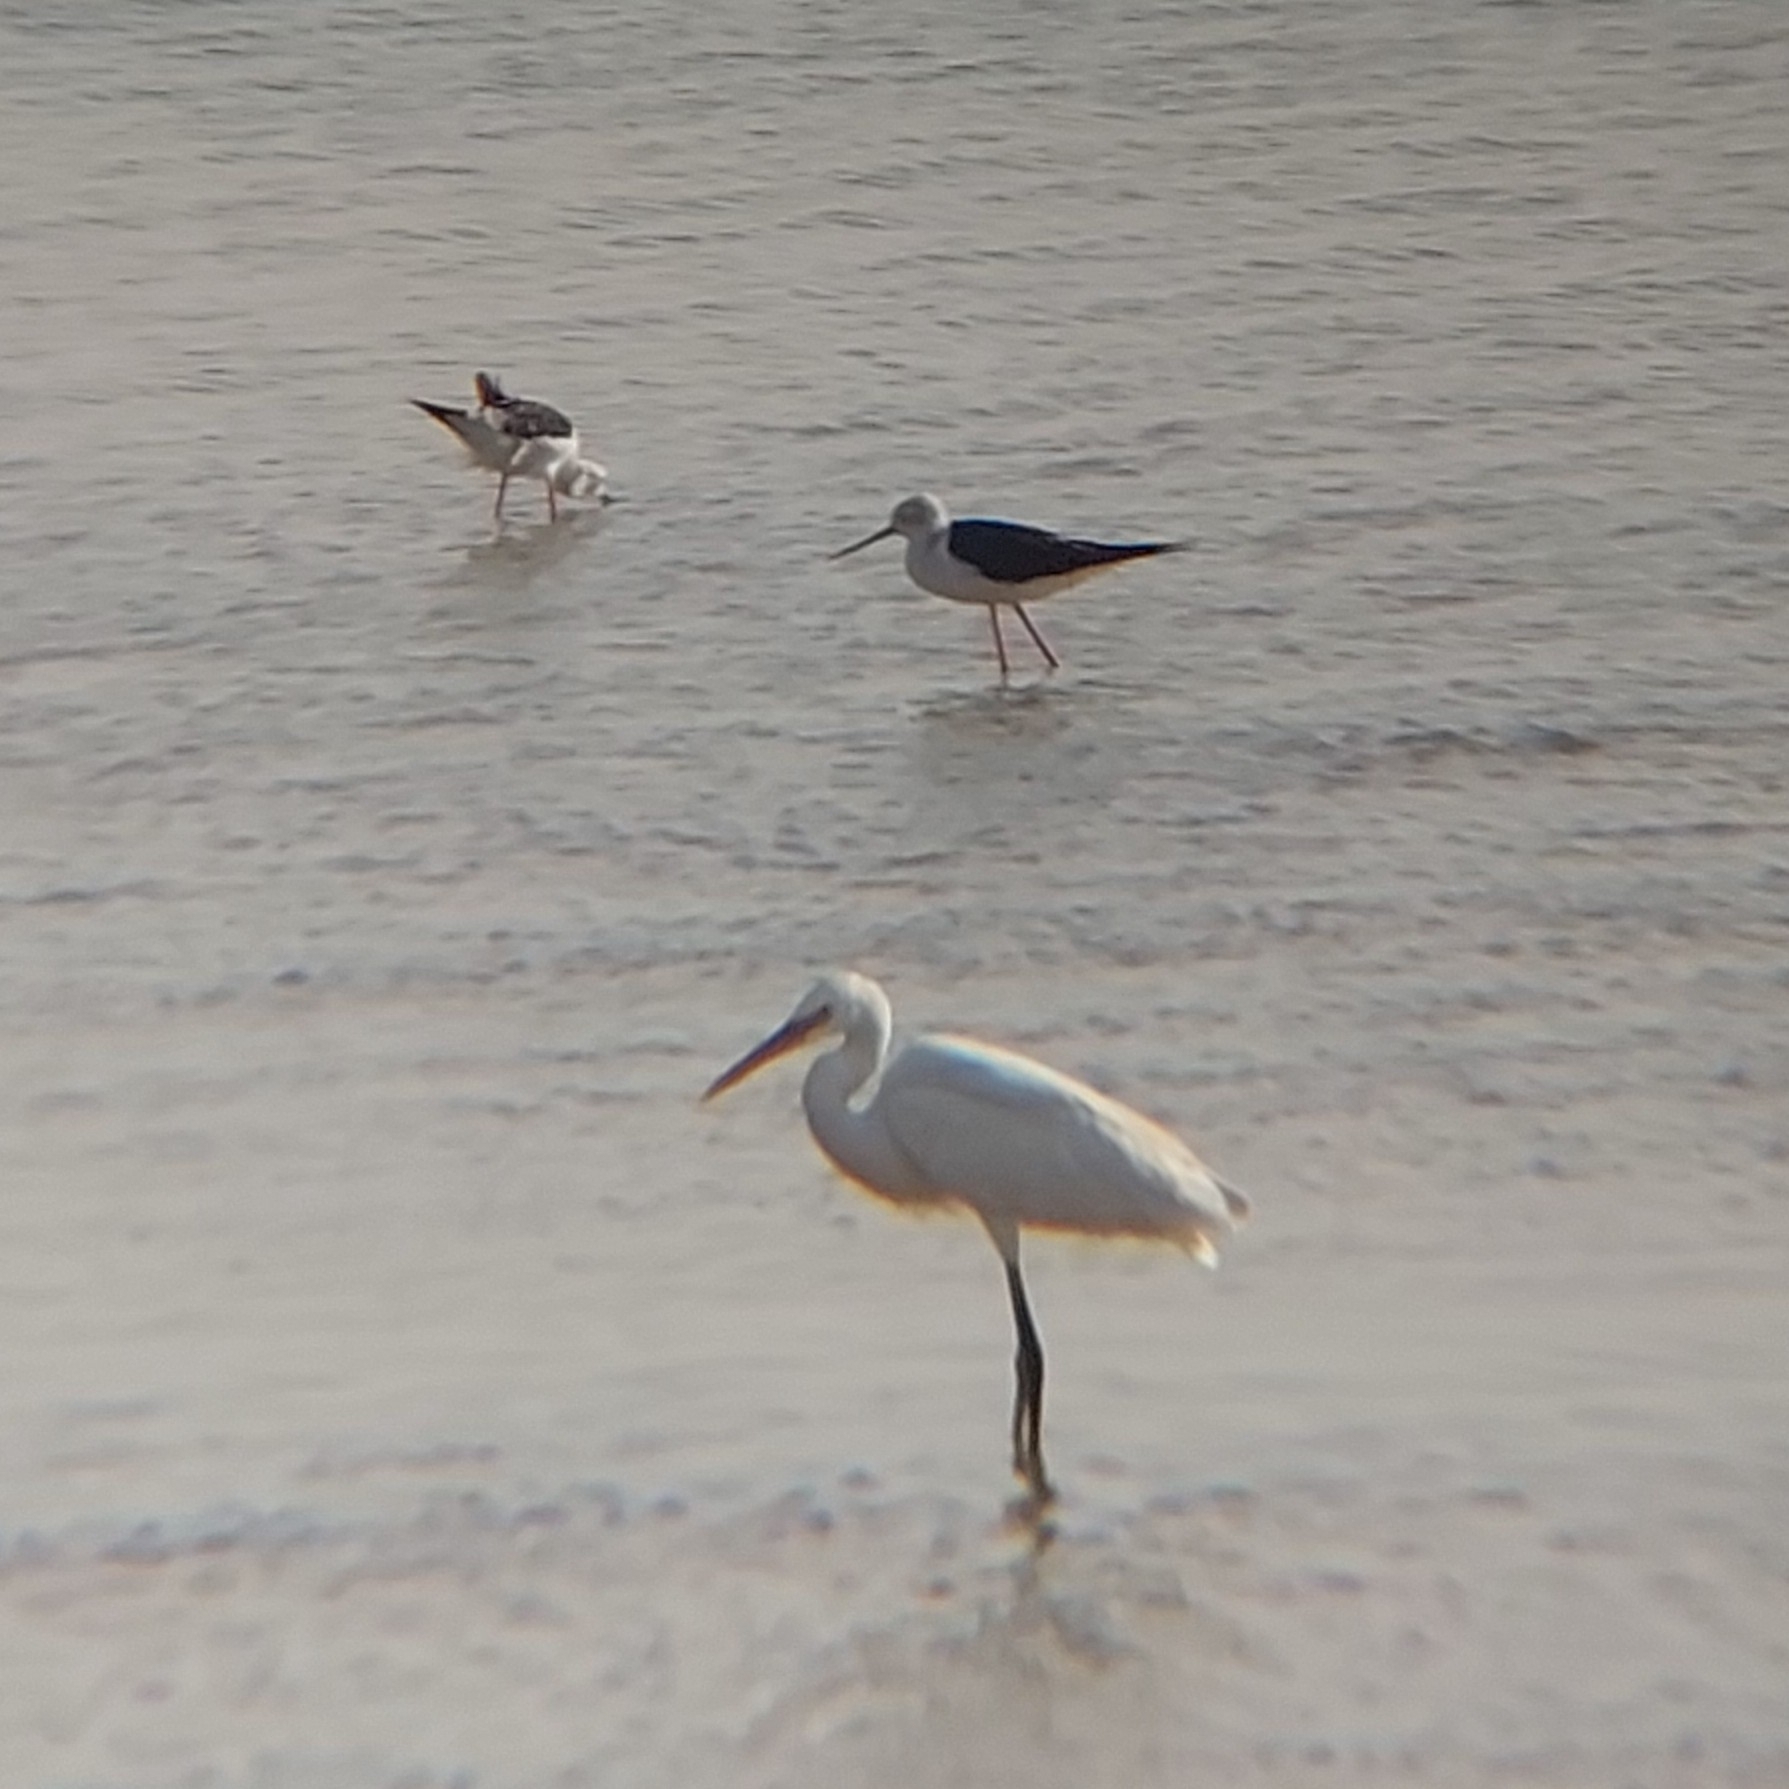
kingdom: Animalia
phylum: Chordata
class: Aves
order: Pelecaniformes
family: Ardeidae
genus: Egretta
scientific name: Egretta gularis
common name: Western reef-heron
